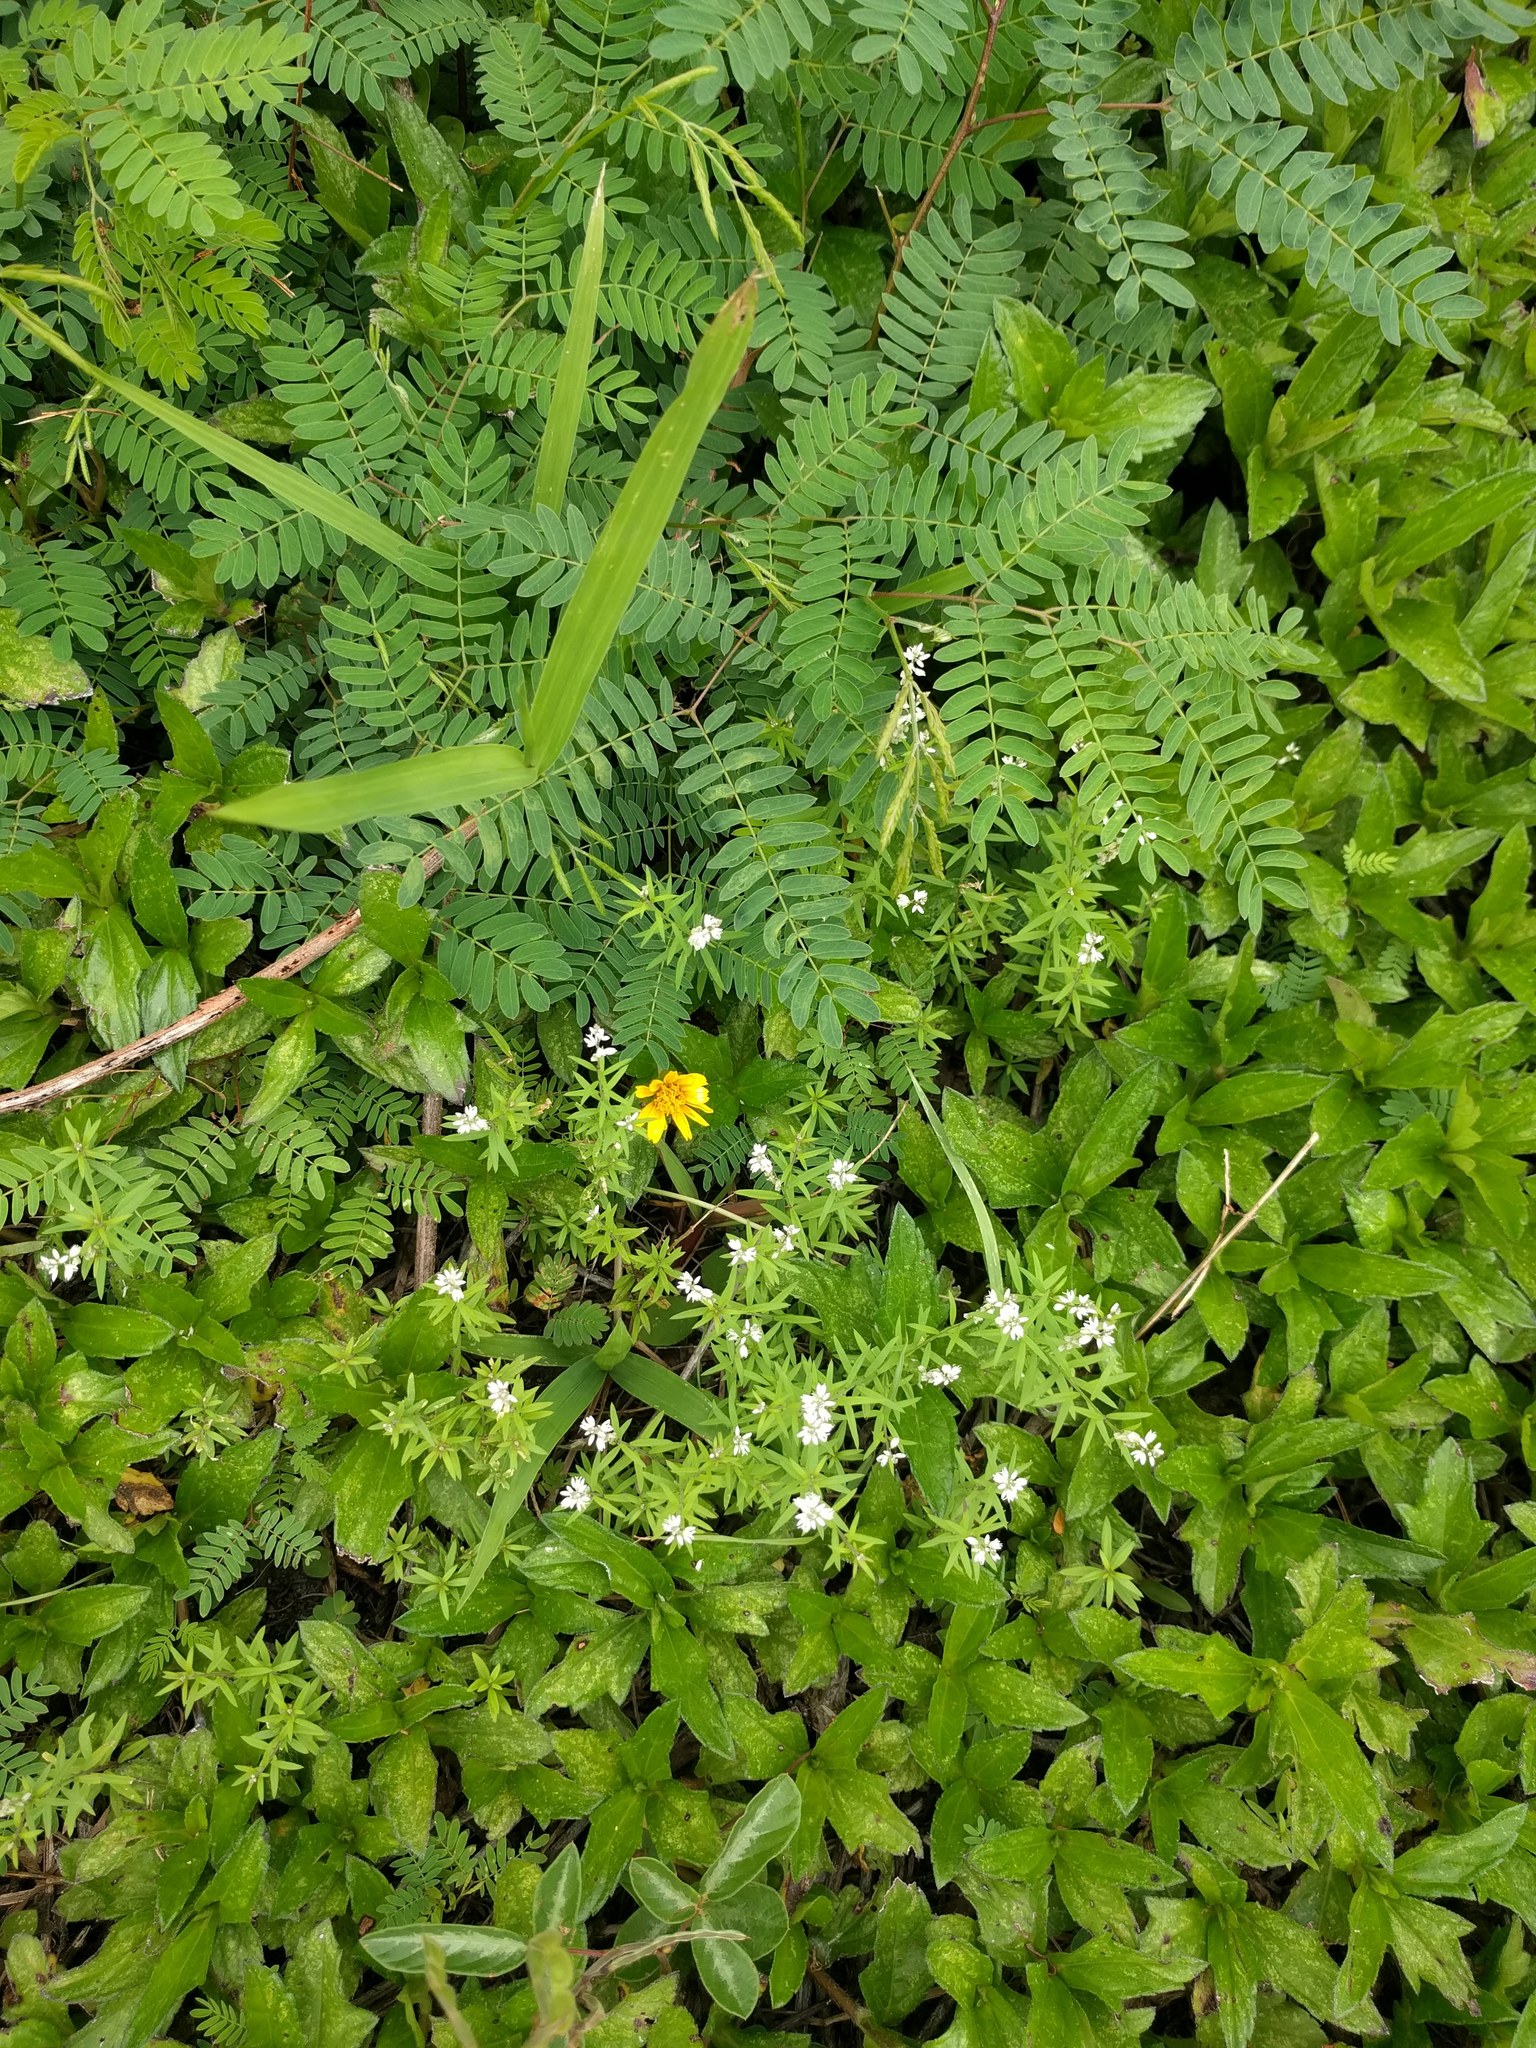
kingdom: Plantae
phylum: Tracheophyta
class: Magnoliopsida
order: Fabales
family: Polygalaceae
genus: Polygala
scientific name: Polygala paniculata
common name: Orosne
